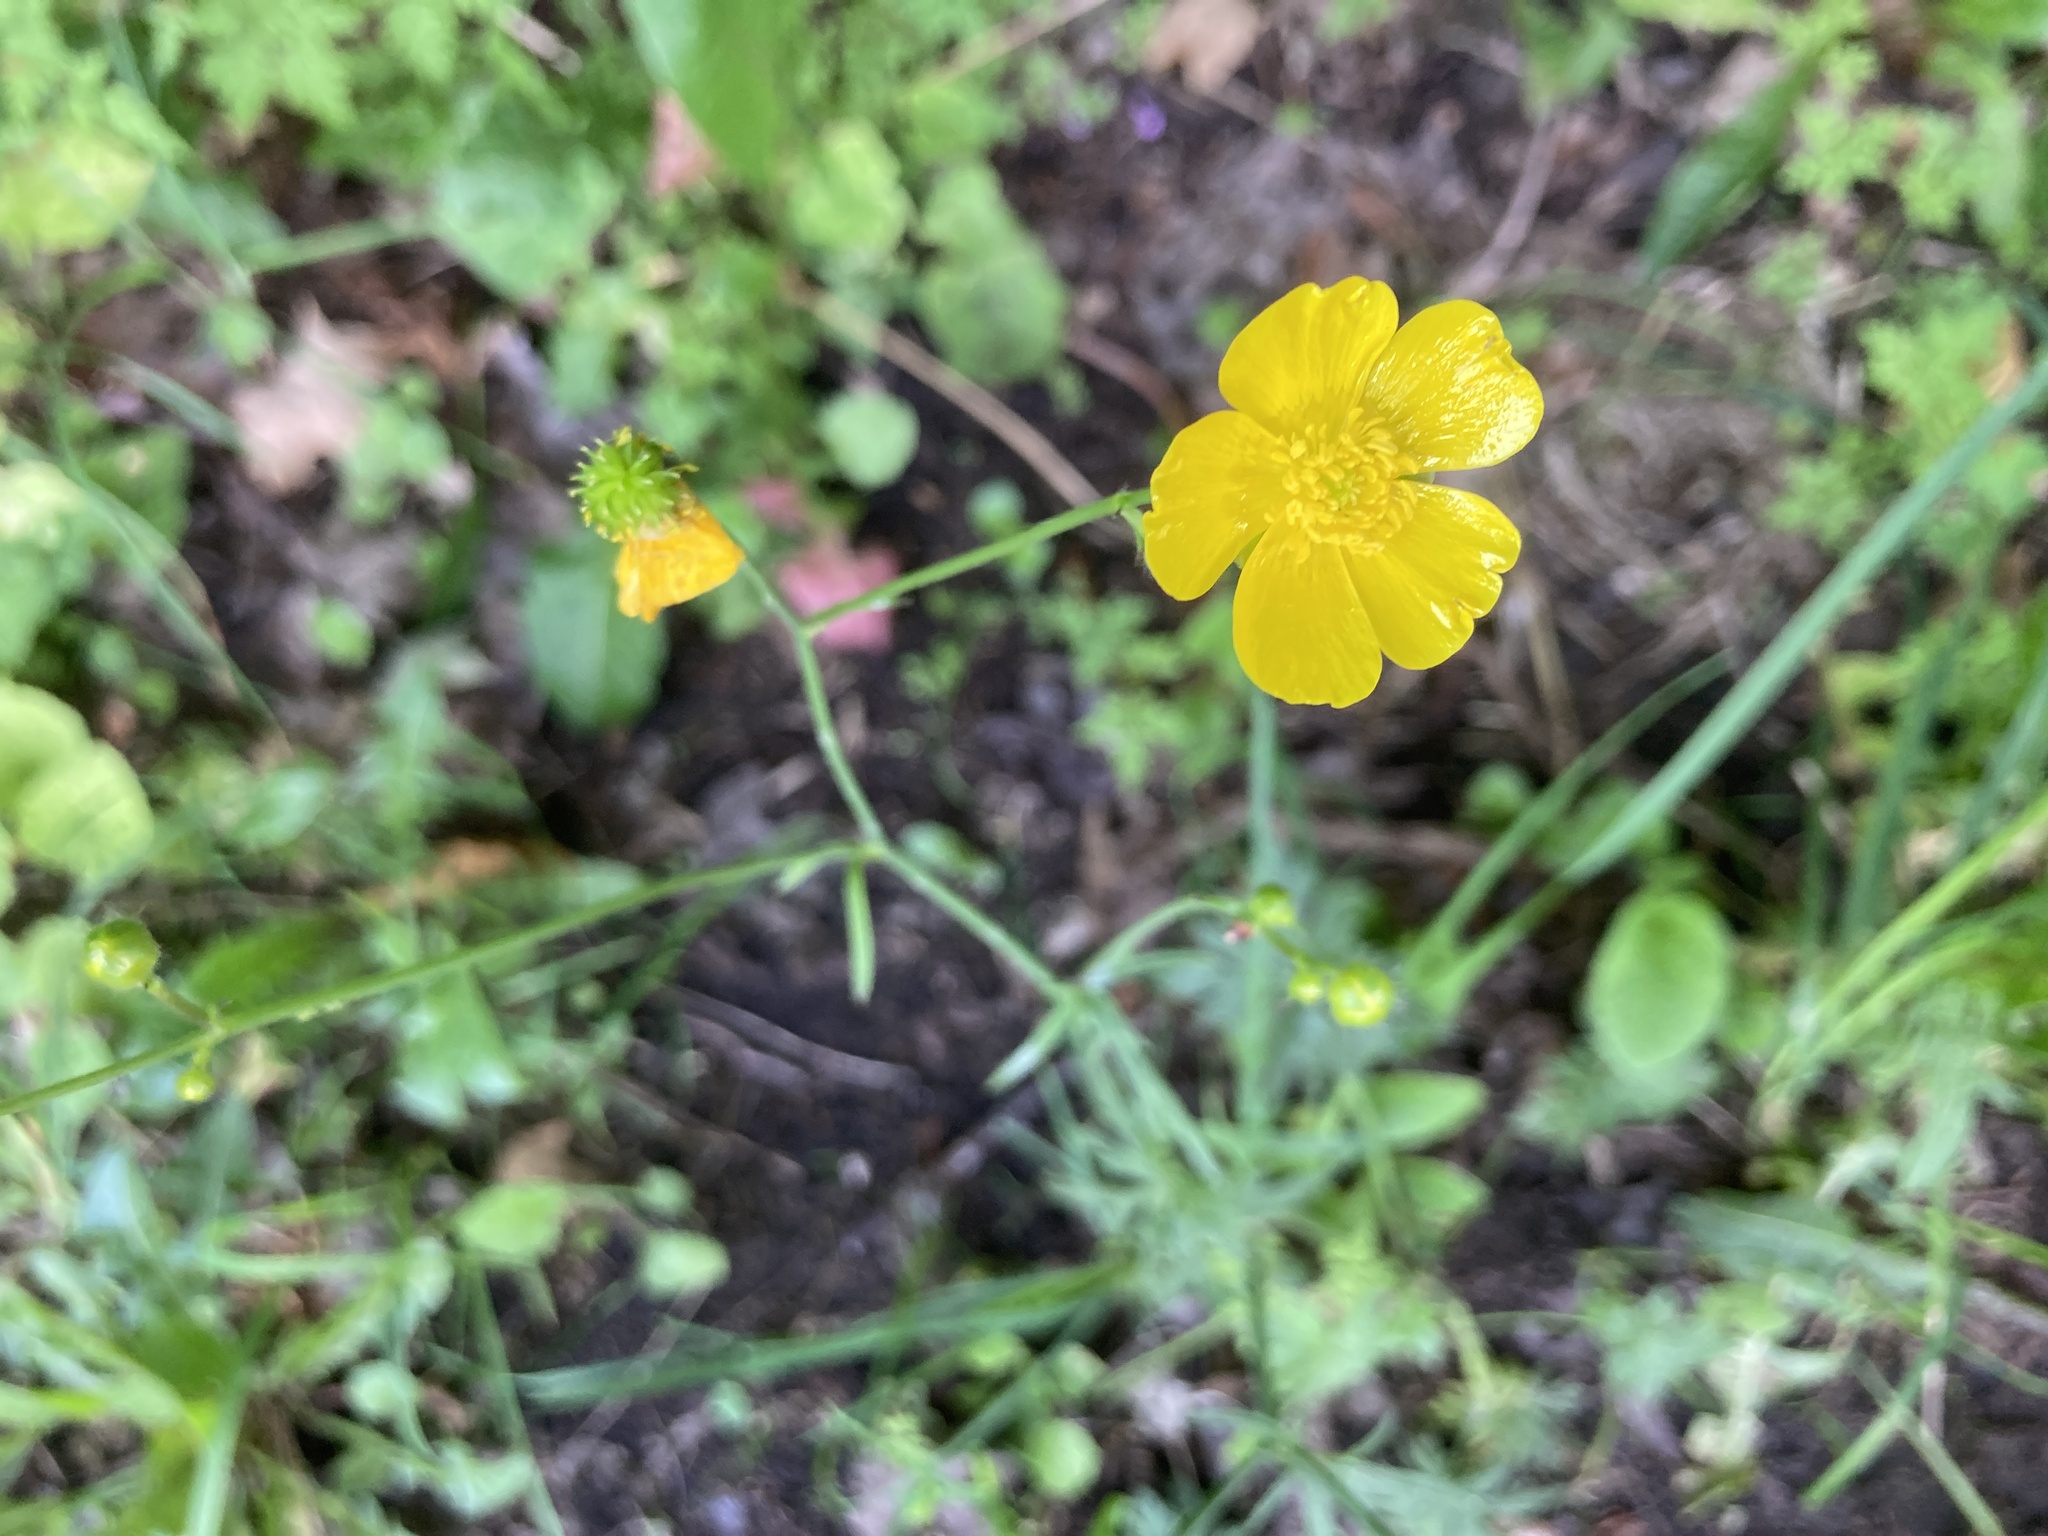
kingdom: Plantae
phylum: Tracheophyta
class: Magnoliopsida
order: Ranunculales
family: Ranunculaceae
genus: Ranunculus
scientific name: Ranunculus acris
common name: Meadow buttercup
